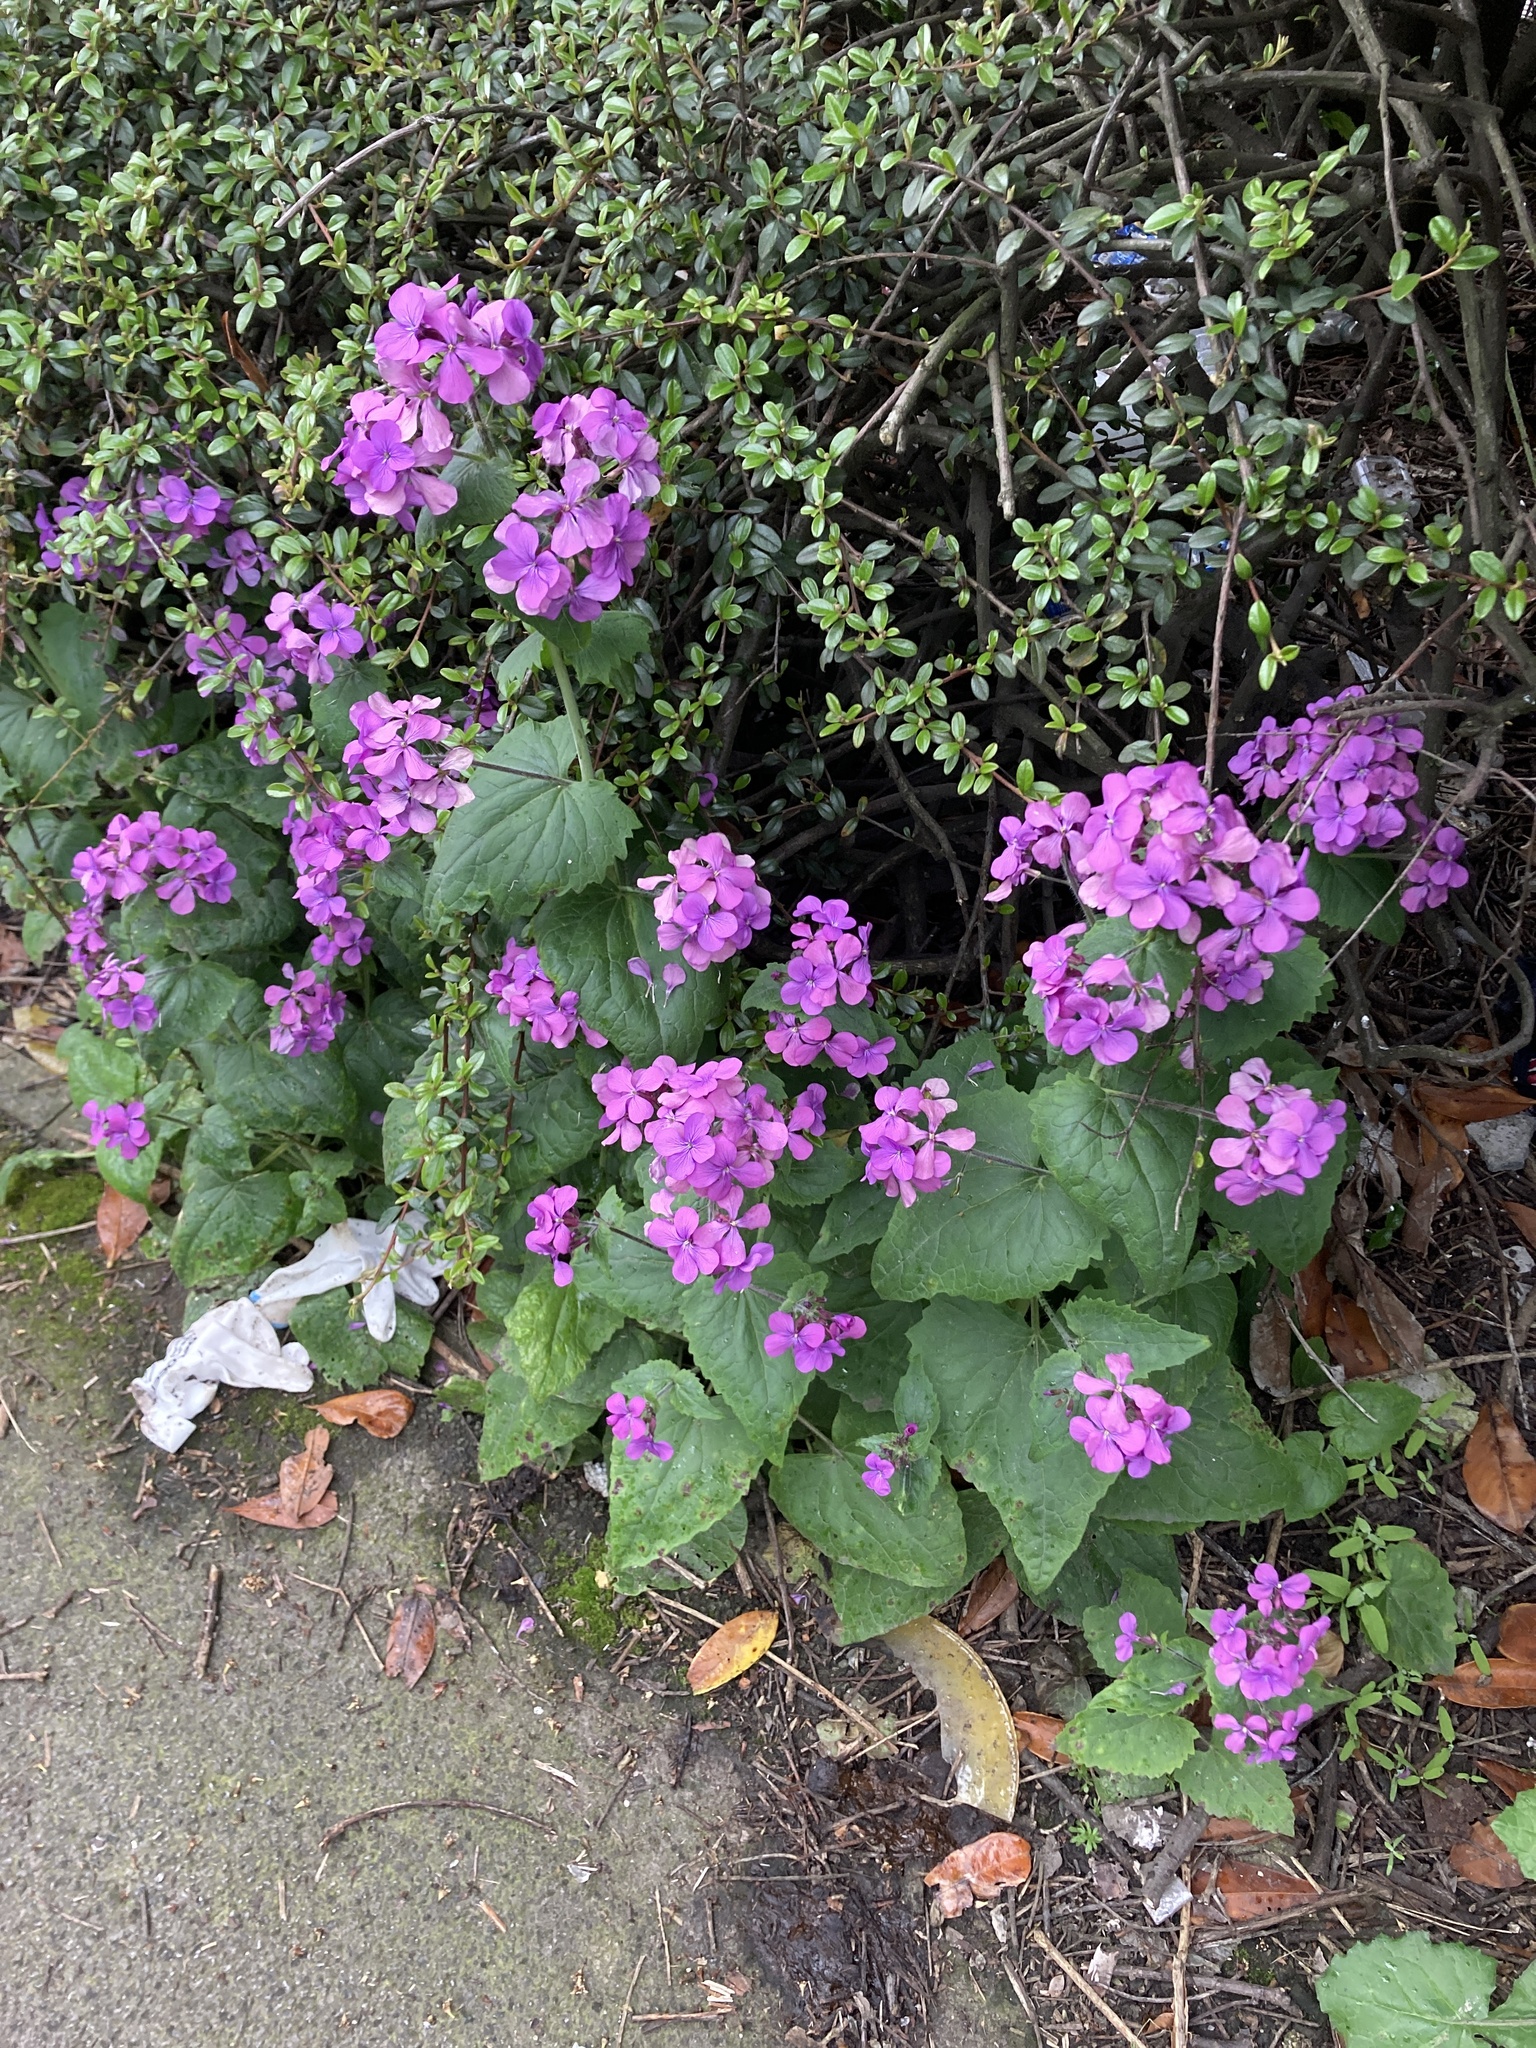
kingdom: Plantae
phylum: Tracheophyta
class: Magnoliopsida
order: Brassicales
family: Brassicaceae
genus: Lunaria
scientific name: Lunaria annua
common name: Honesty
